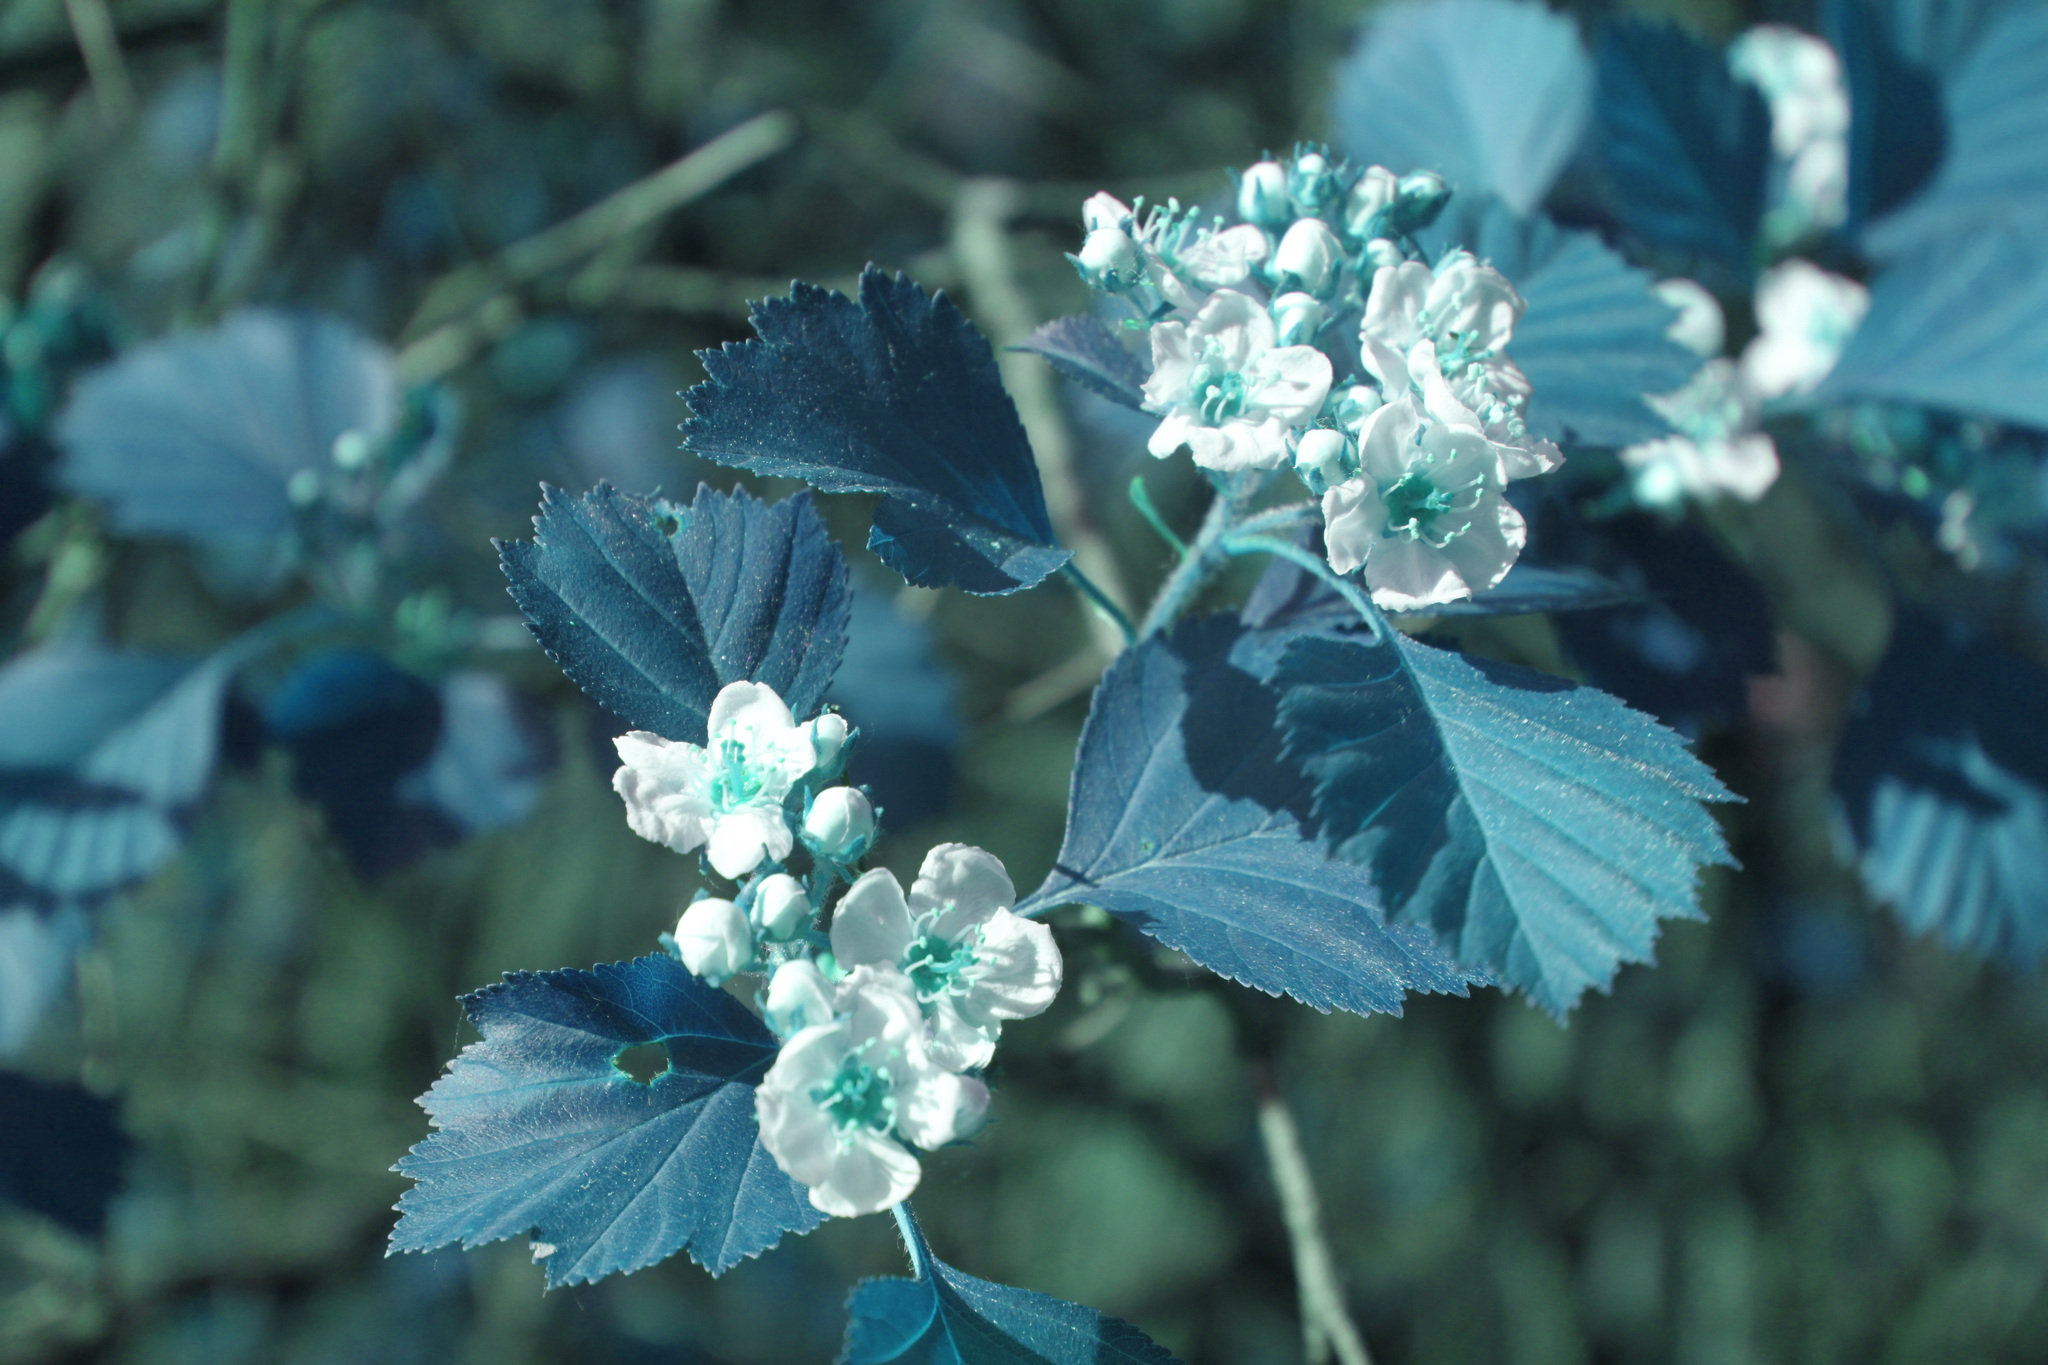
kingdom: Plantae
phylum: Tracheophyta
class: Magnoliopsida
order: Rosales
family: Rosaceae
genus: Crataegus
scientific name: Crataegus chrysocarpa
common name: Fire-berry hawthorn
